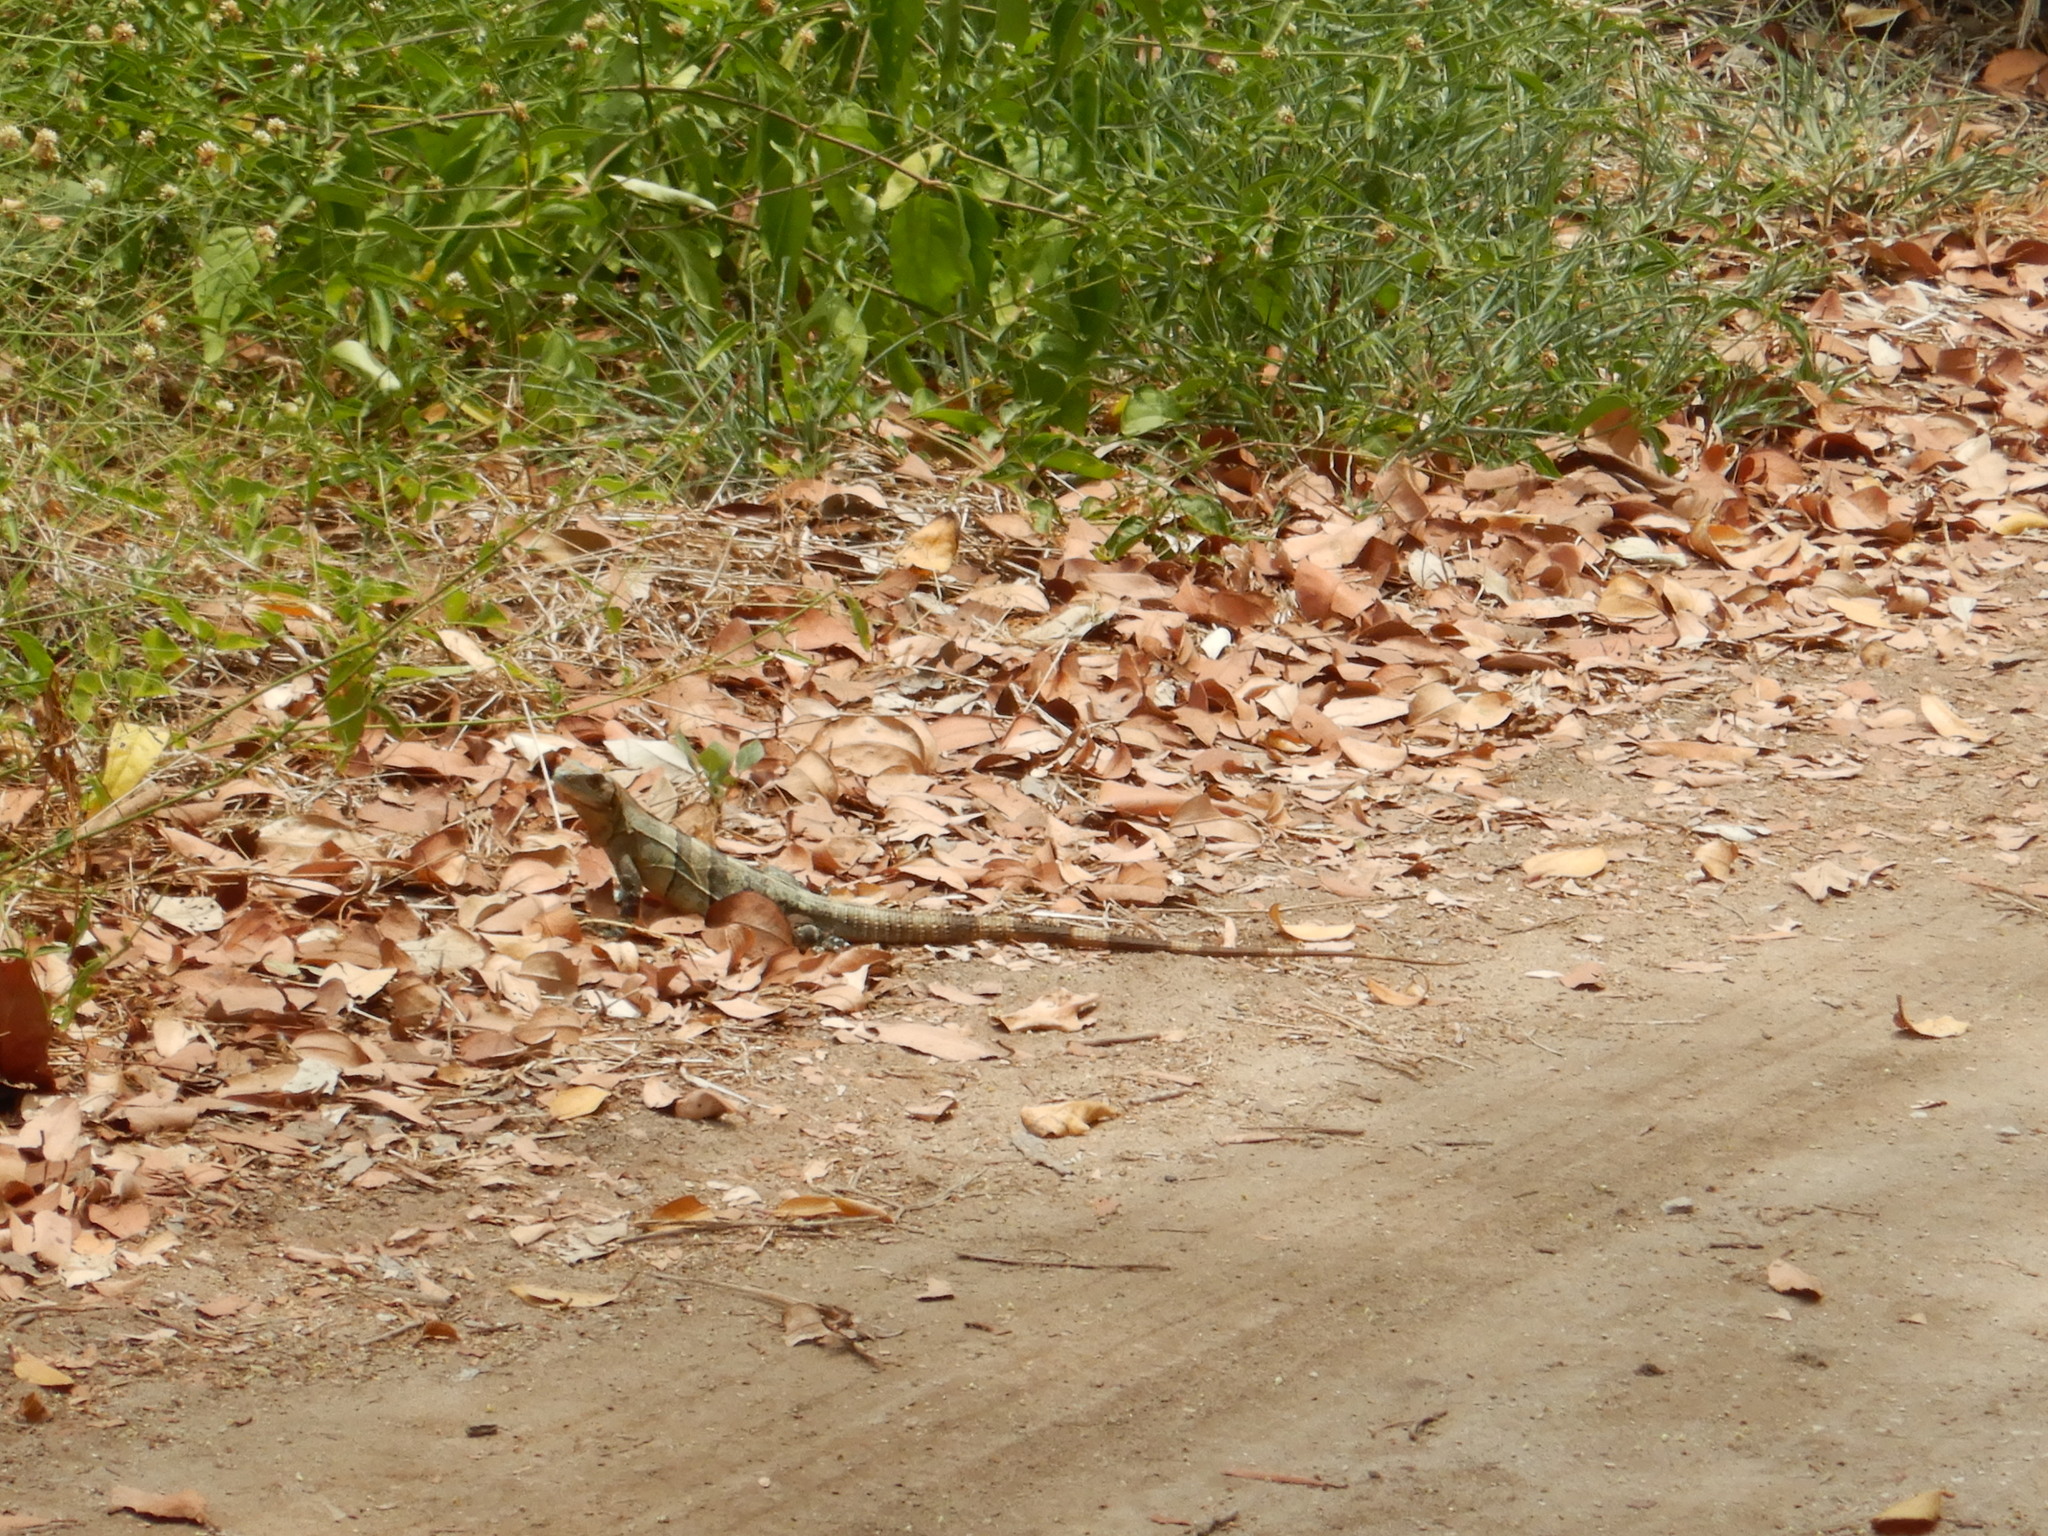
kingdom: Animalia
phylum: Chordata
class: Squamata
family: Iguanidae
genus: Ctenosaura
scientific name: Ctenosaura similis
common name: Black spiny-tailed iguana
